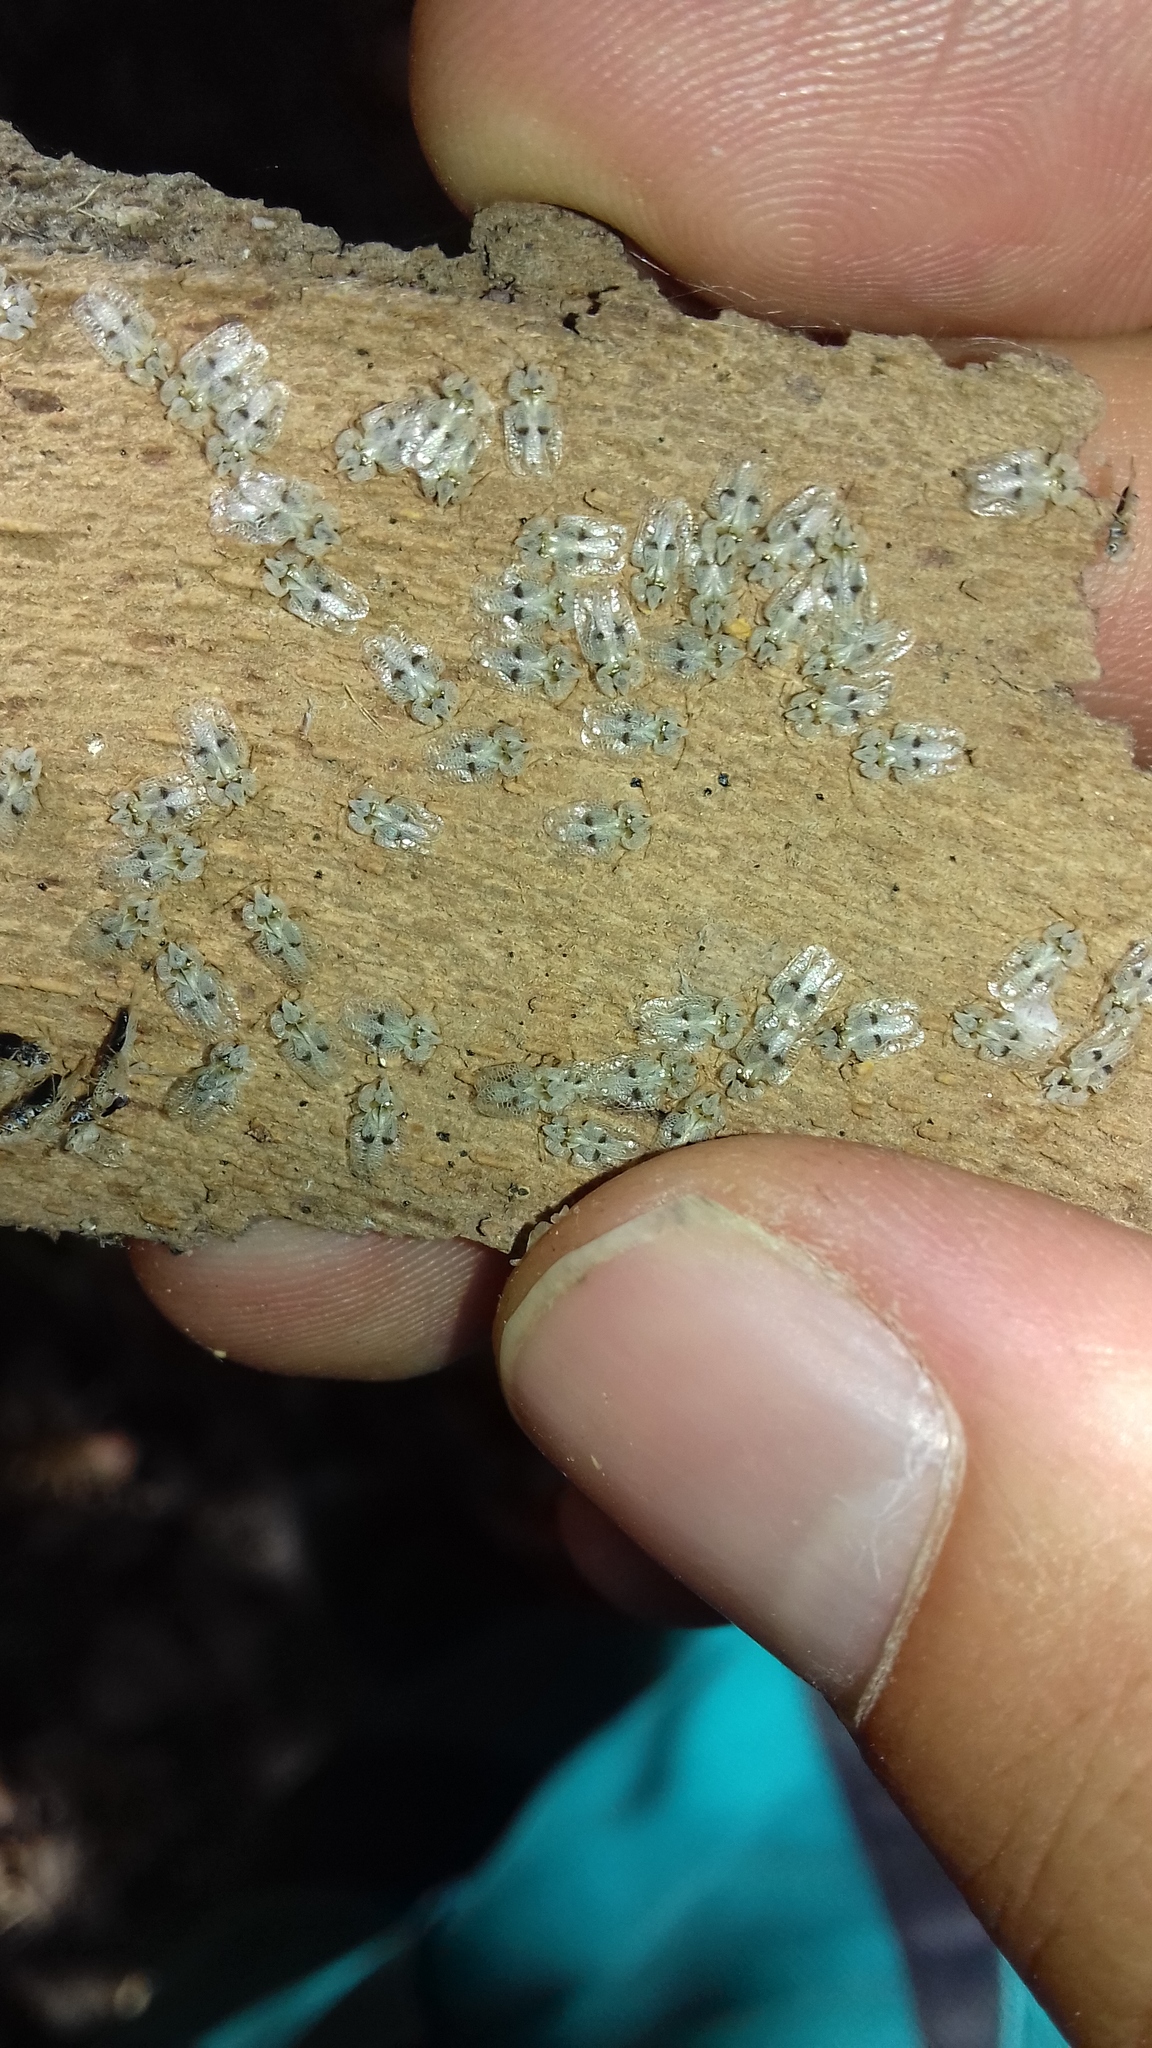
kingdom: Animalia
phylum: Arthropoda
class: Insecta
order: Hemiptera
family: Tingidae
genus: Corythucha
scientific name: Corythucha ciliata
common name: Sycamore lace bug
